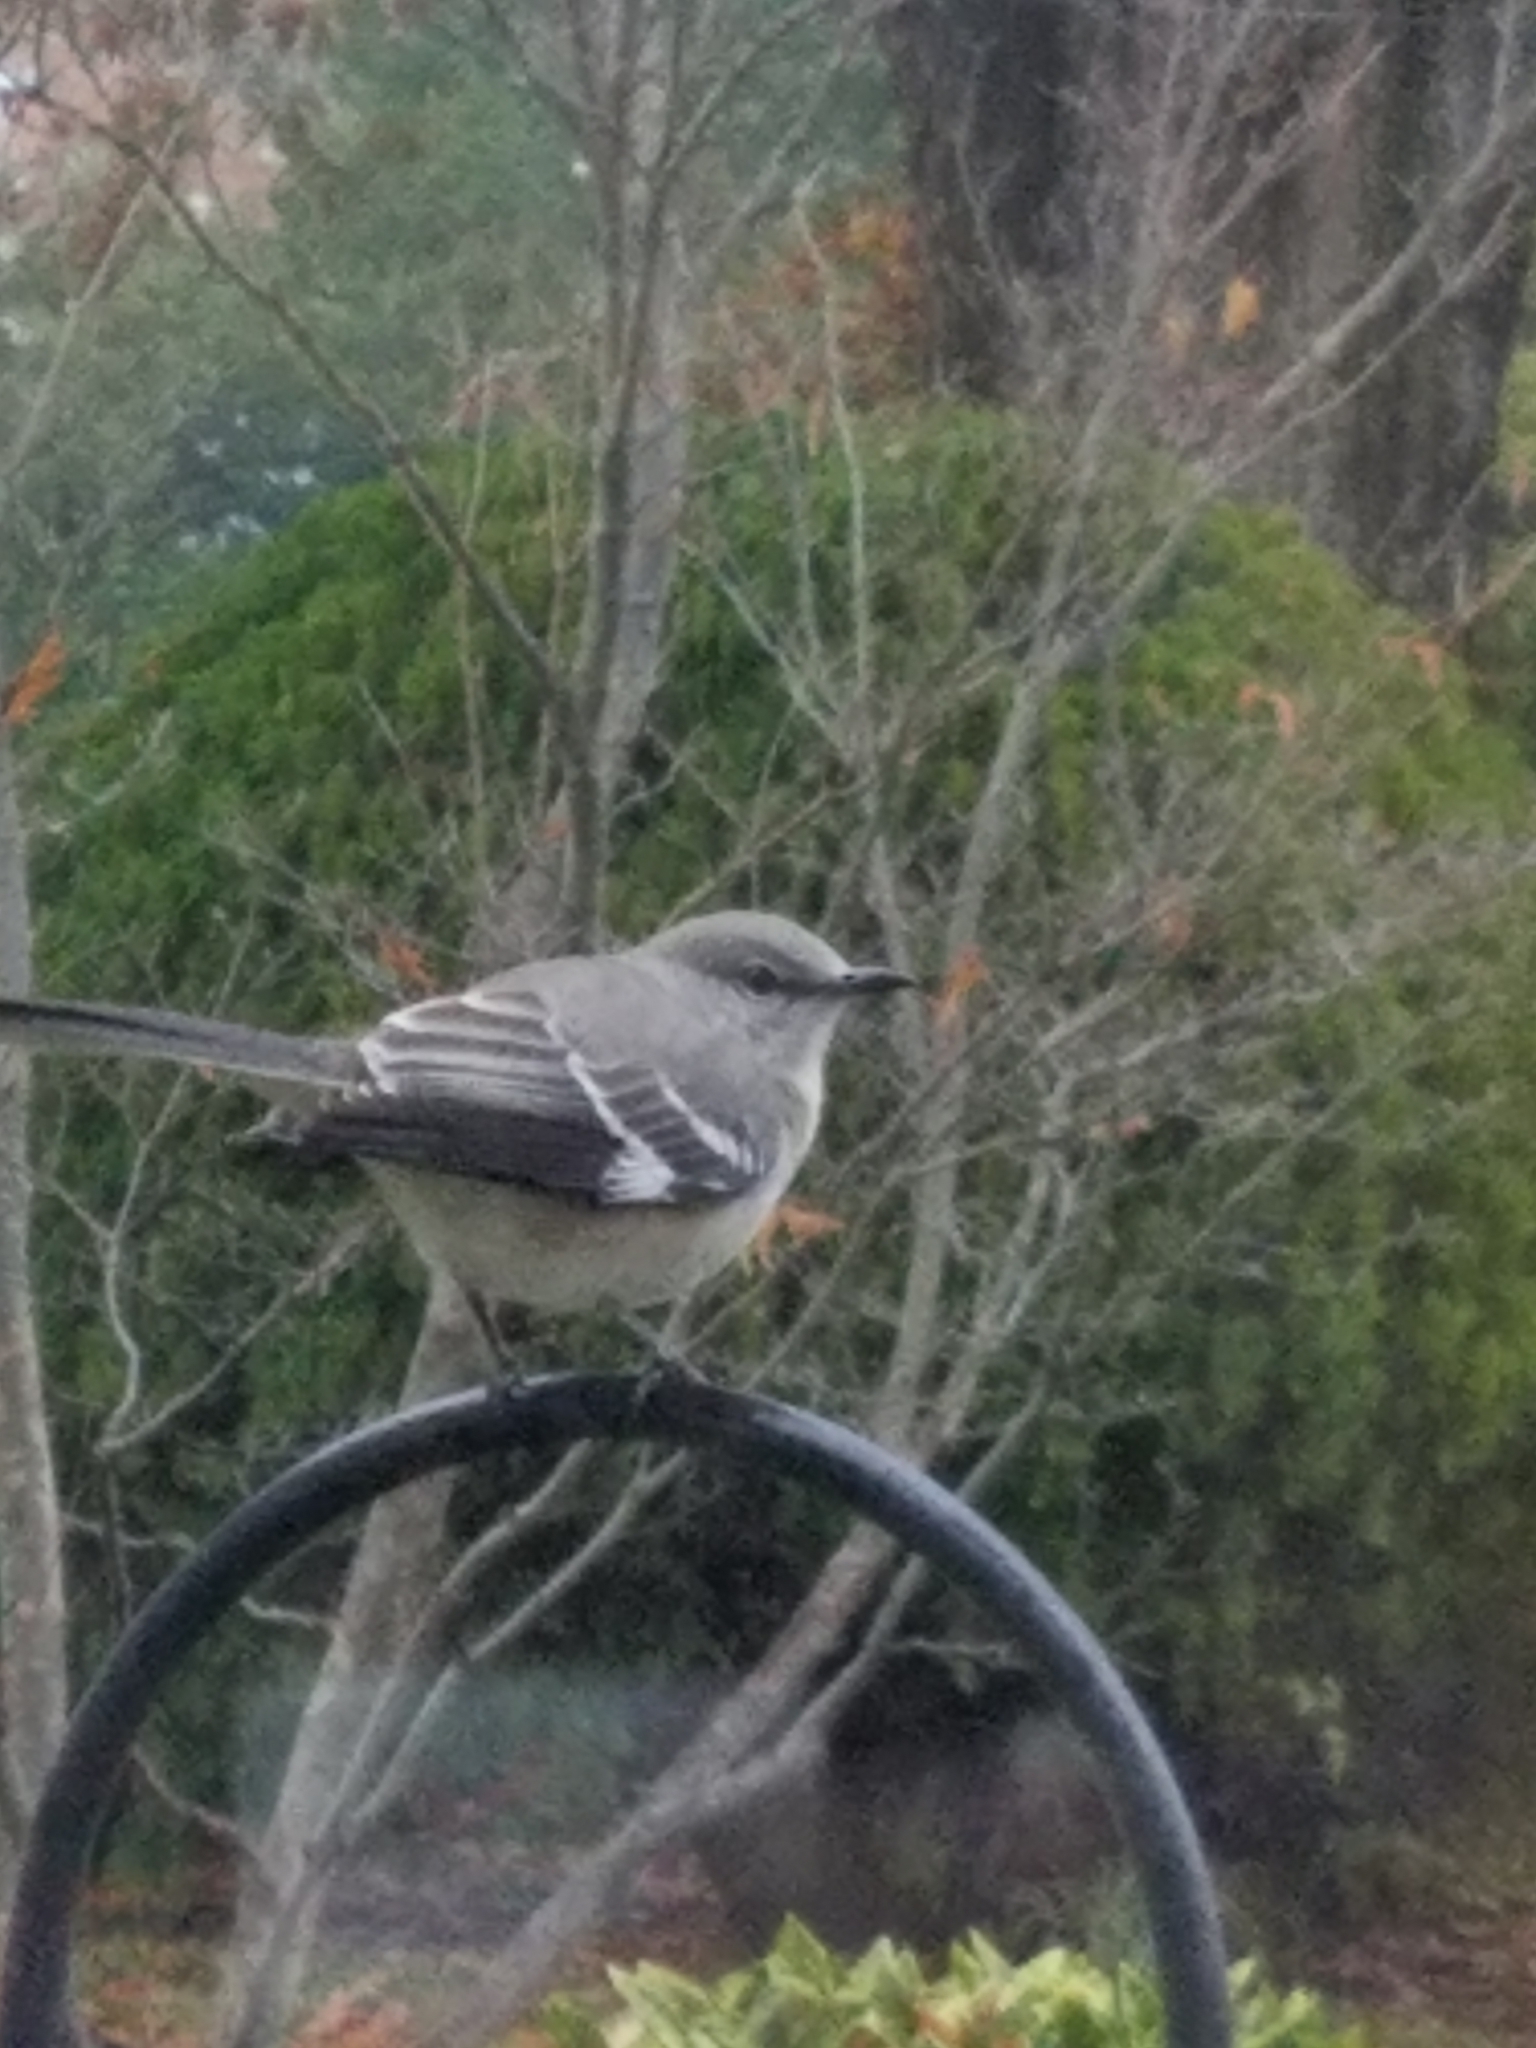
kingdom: Animalia
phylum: Chordata
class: Aves
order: Passeriformes
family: Mimidae
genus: Mimus
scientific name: Mimus polyglottos
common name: Northern mockingbird
